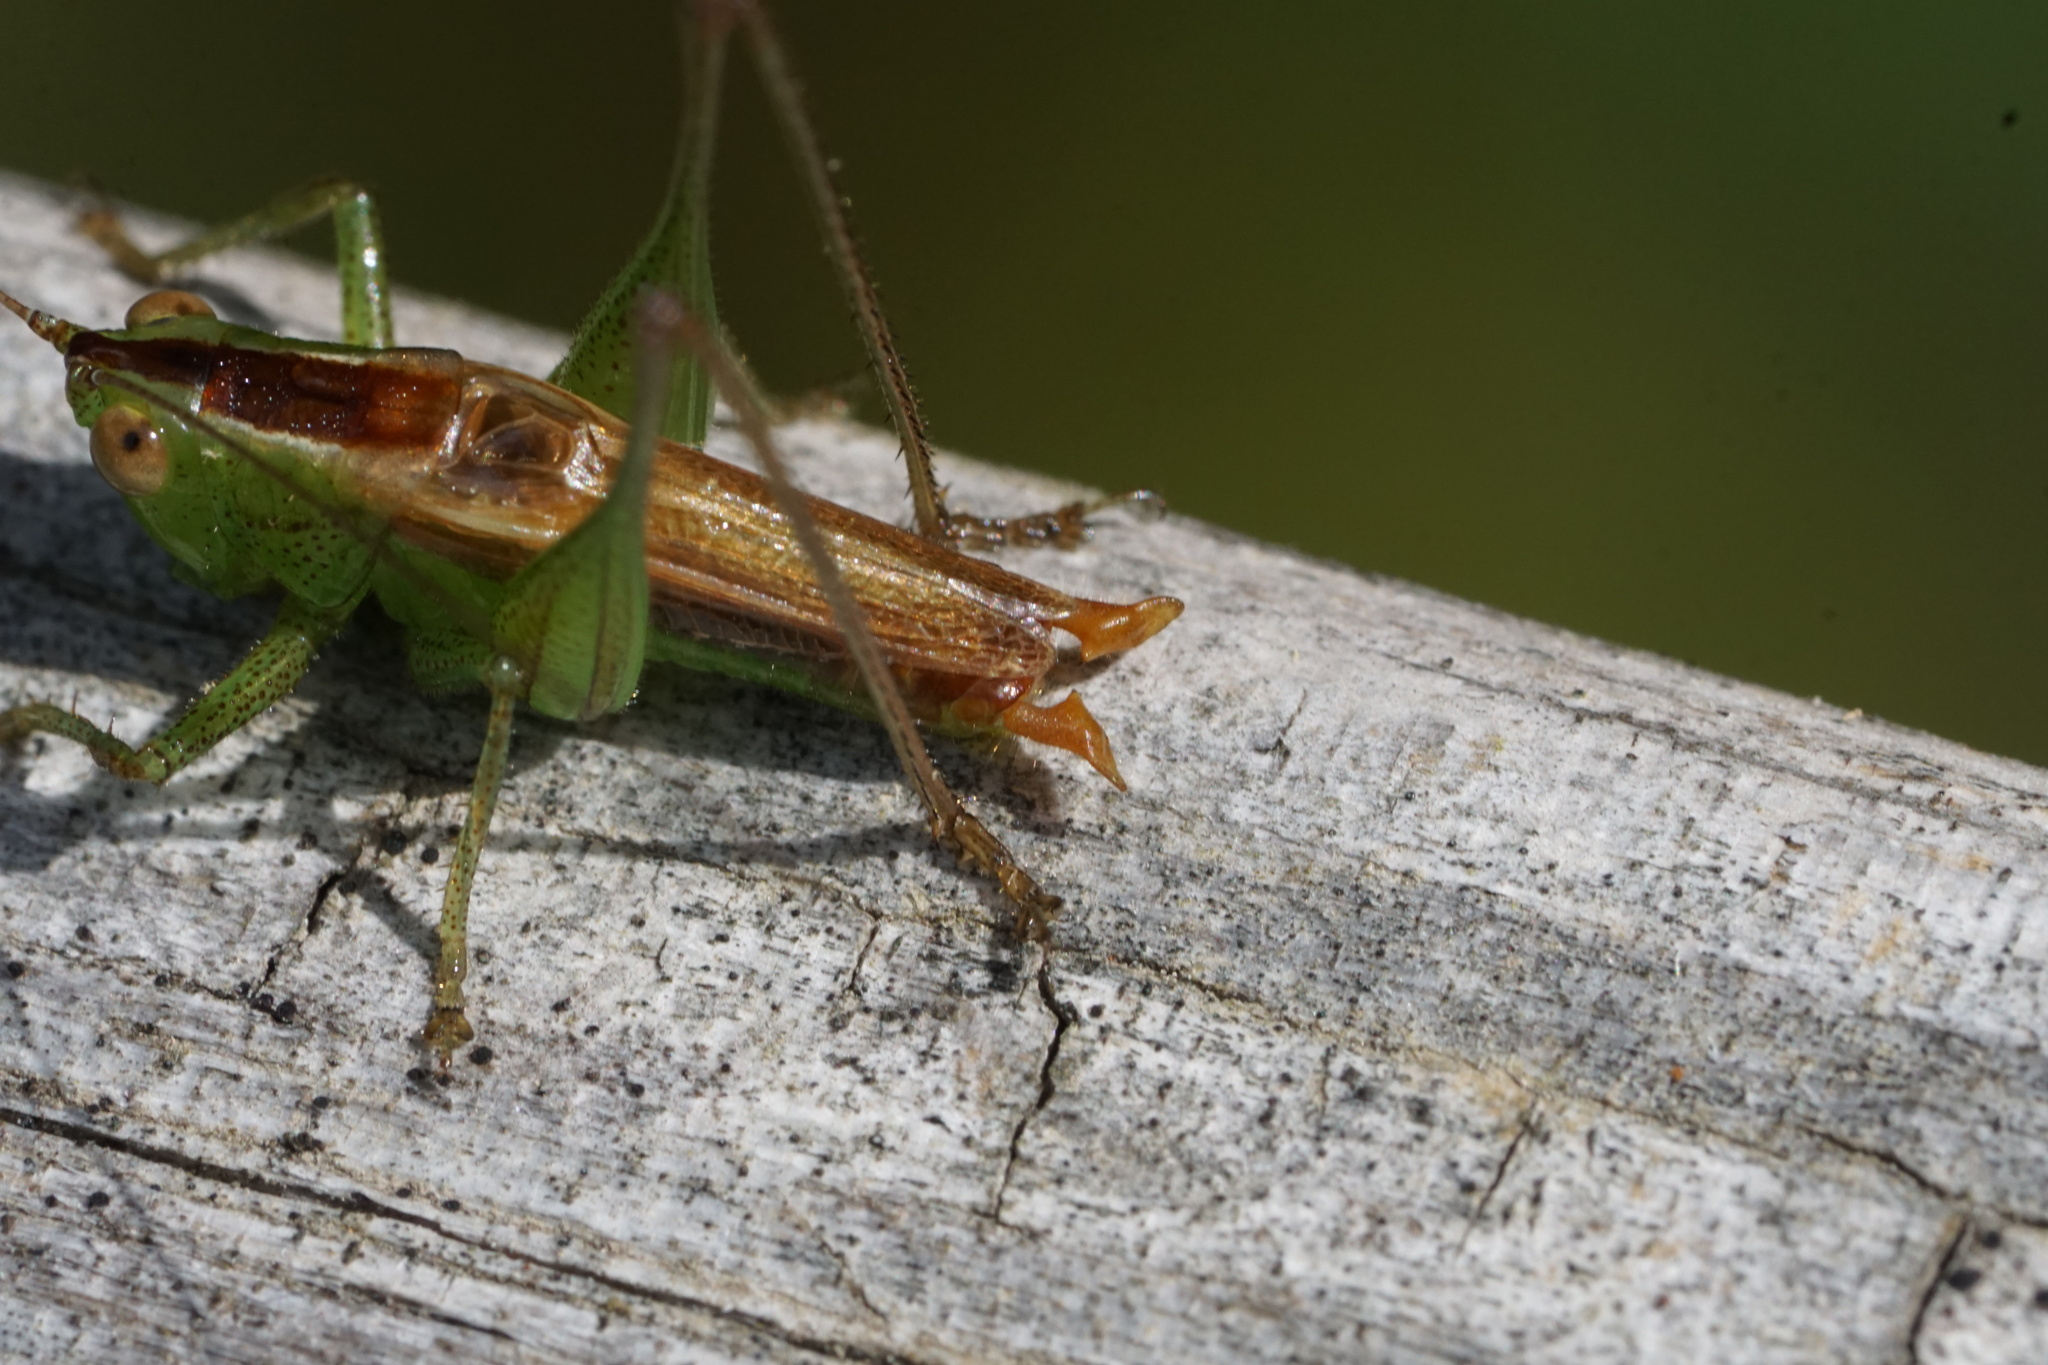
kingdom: Animalia
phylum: Arthropoda
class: Insecta
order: Orthoptera
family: Tettigoniidae
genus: Conocephalus
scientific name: Conocephalus brevipennis
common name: Short-winged meadow katydid
